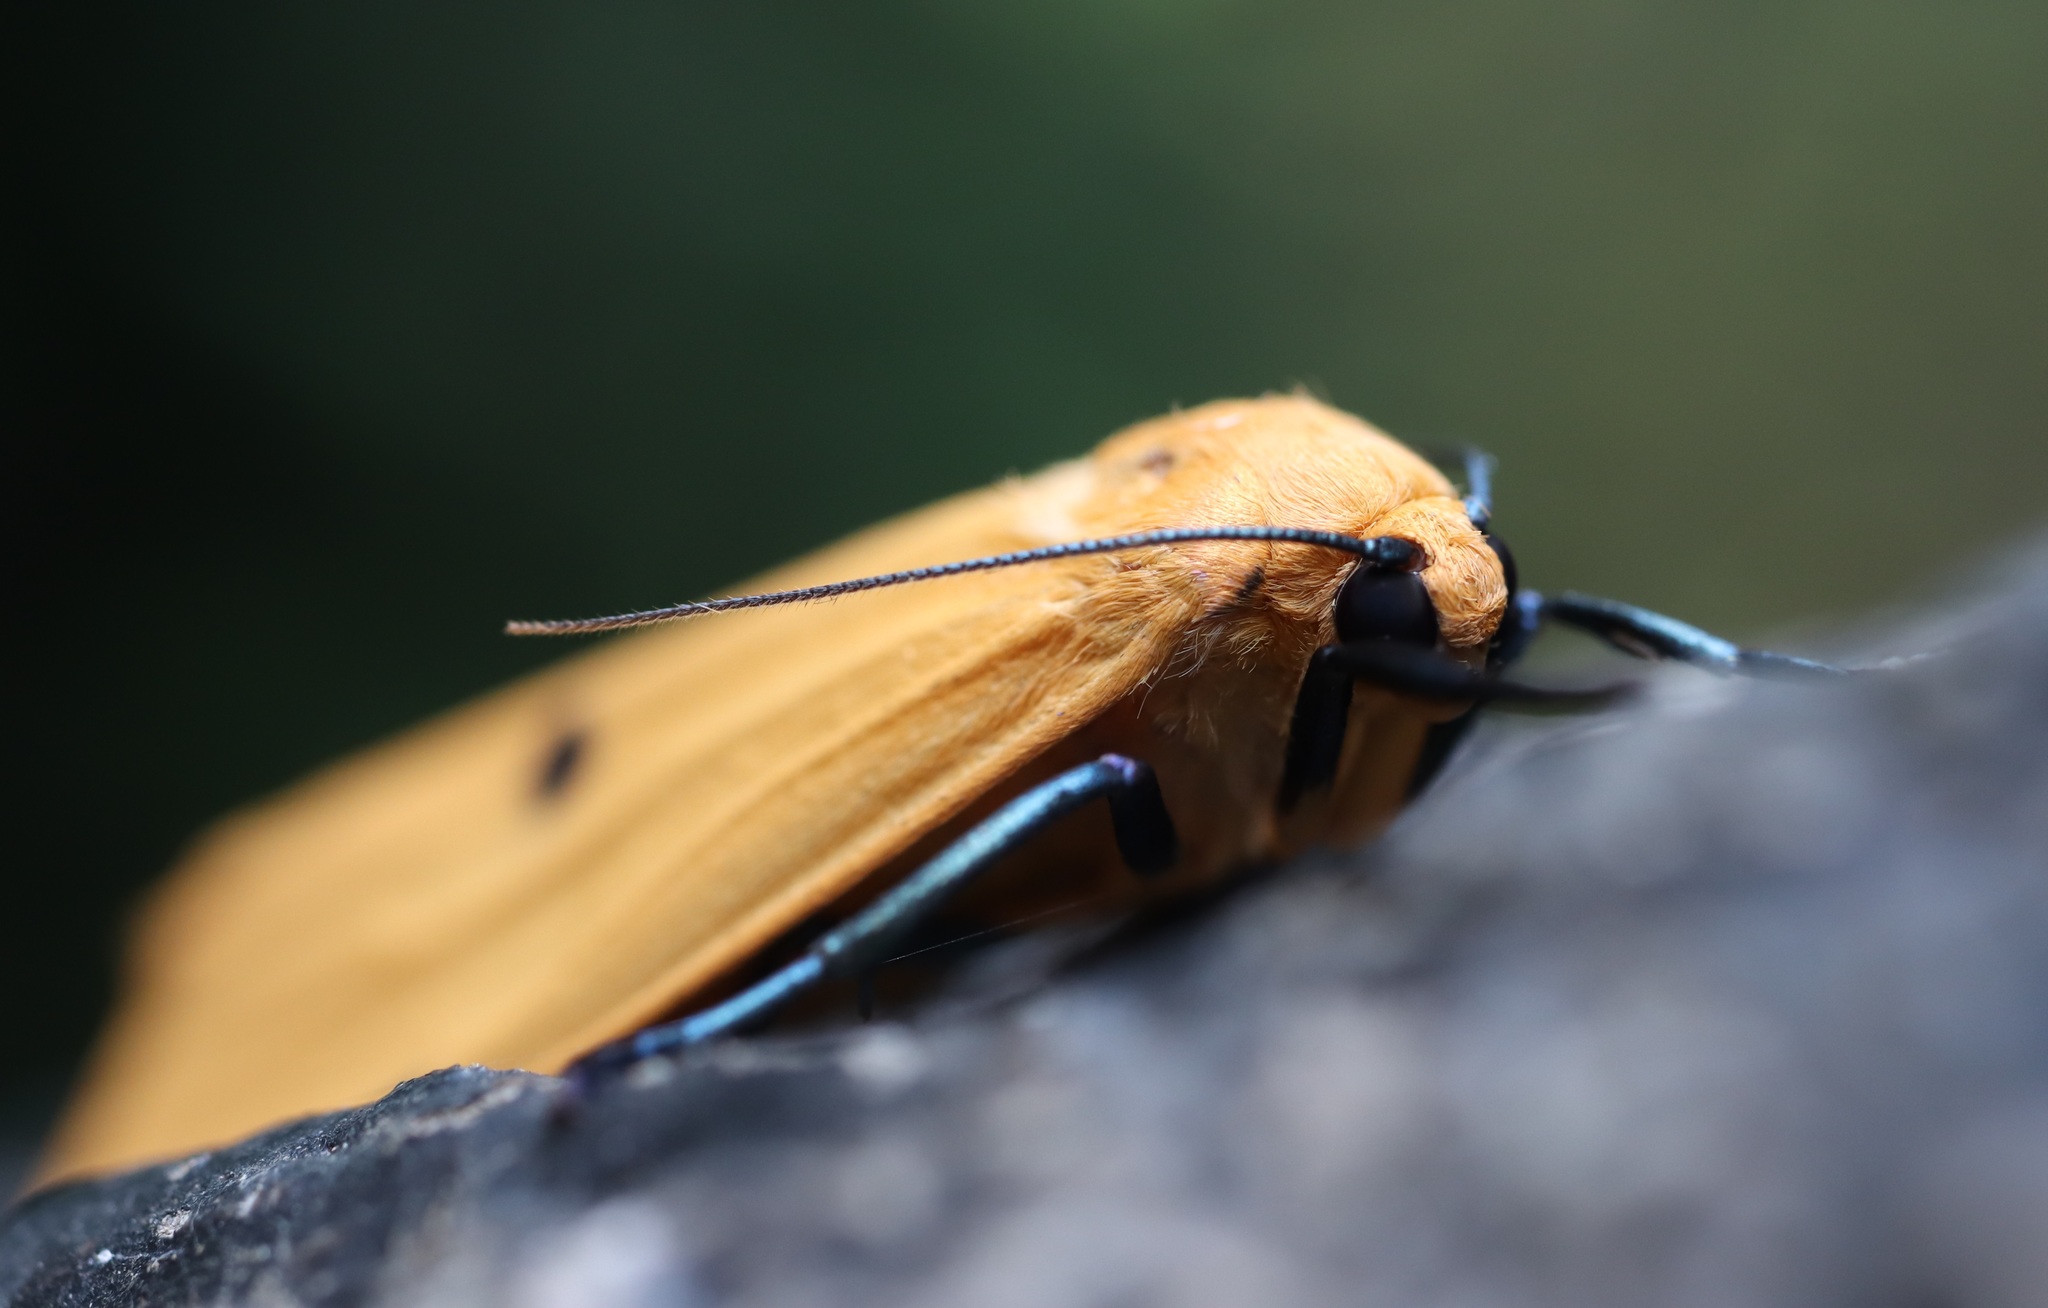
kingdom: Animalia
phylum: Arthropoda
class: Insecta
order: Lepidoptera
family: Erebidae
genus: Lithosia
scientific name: Lithosia quadra
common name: Four-spotted footman
